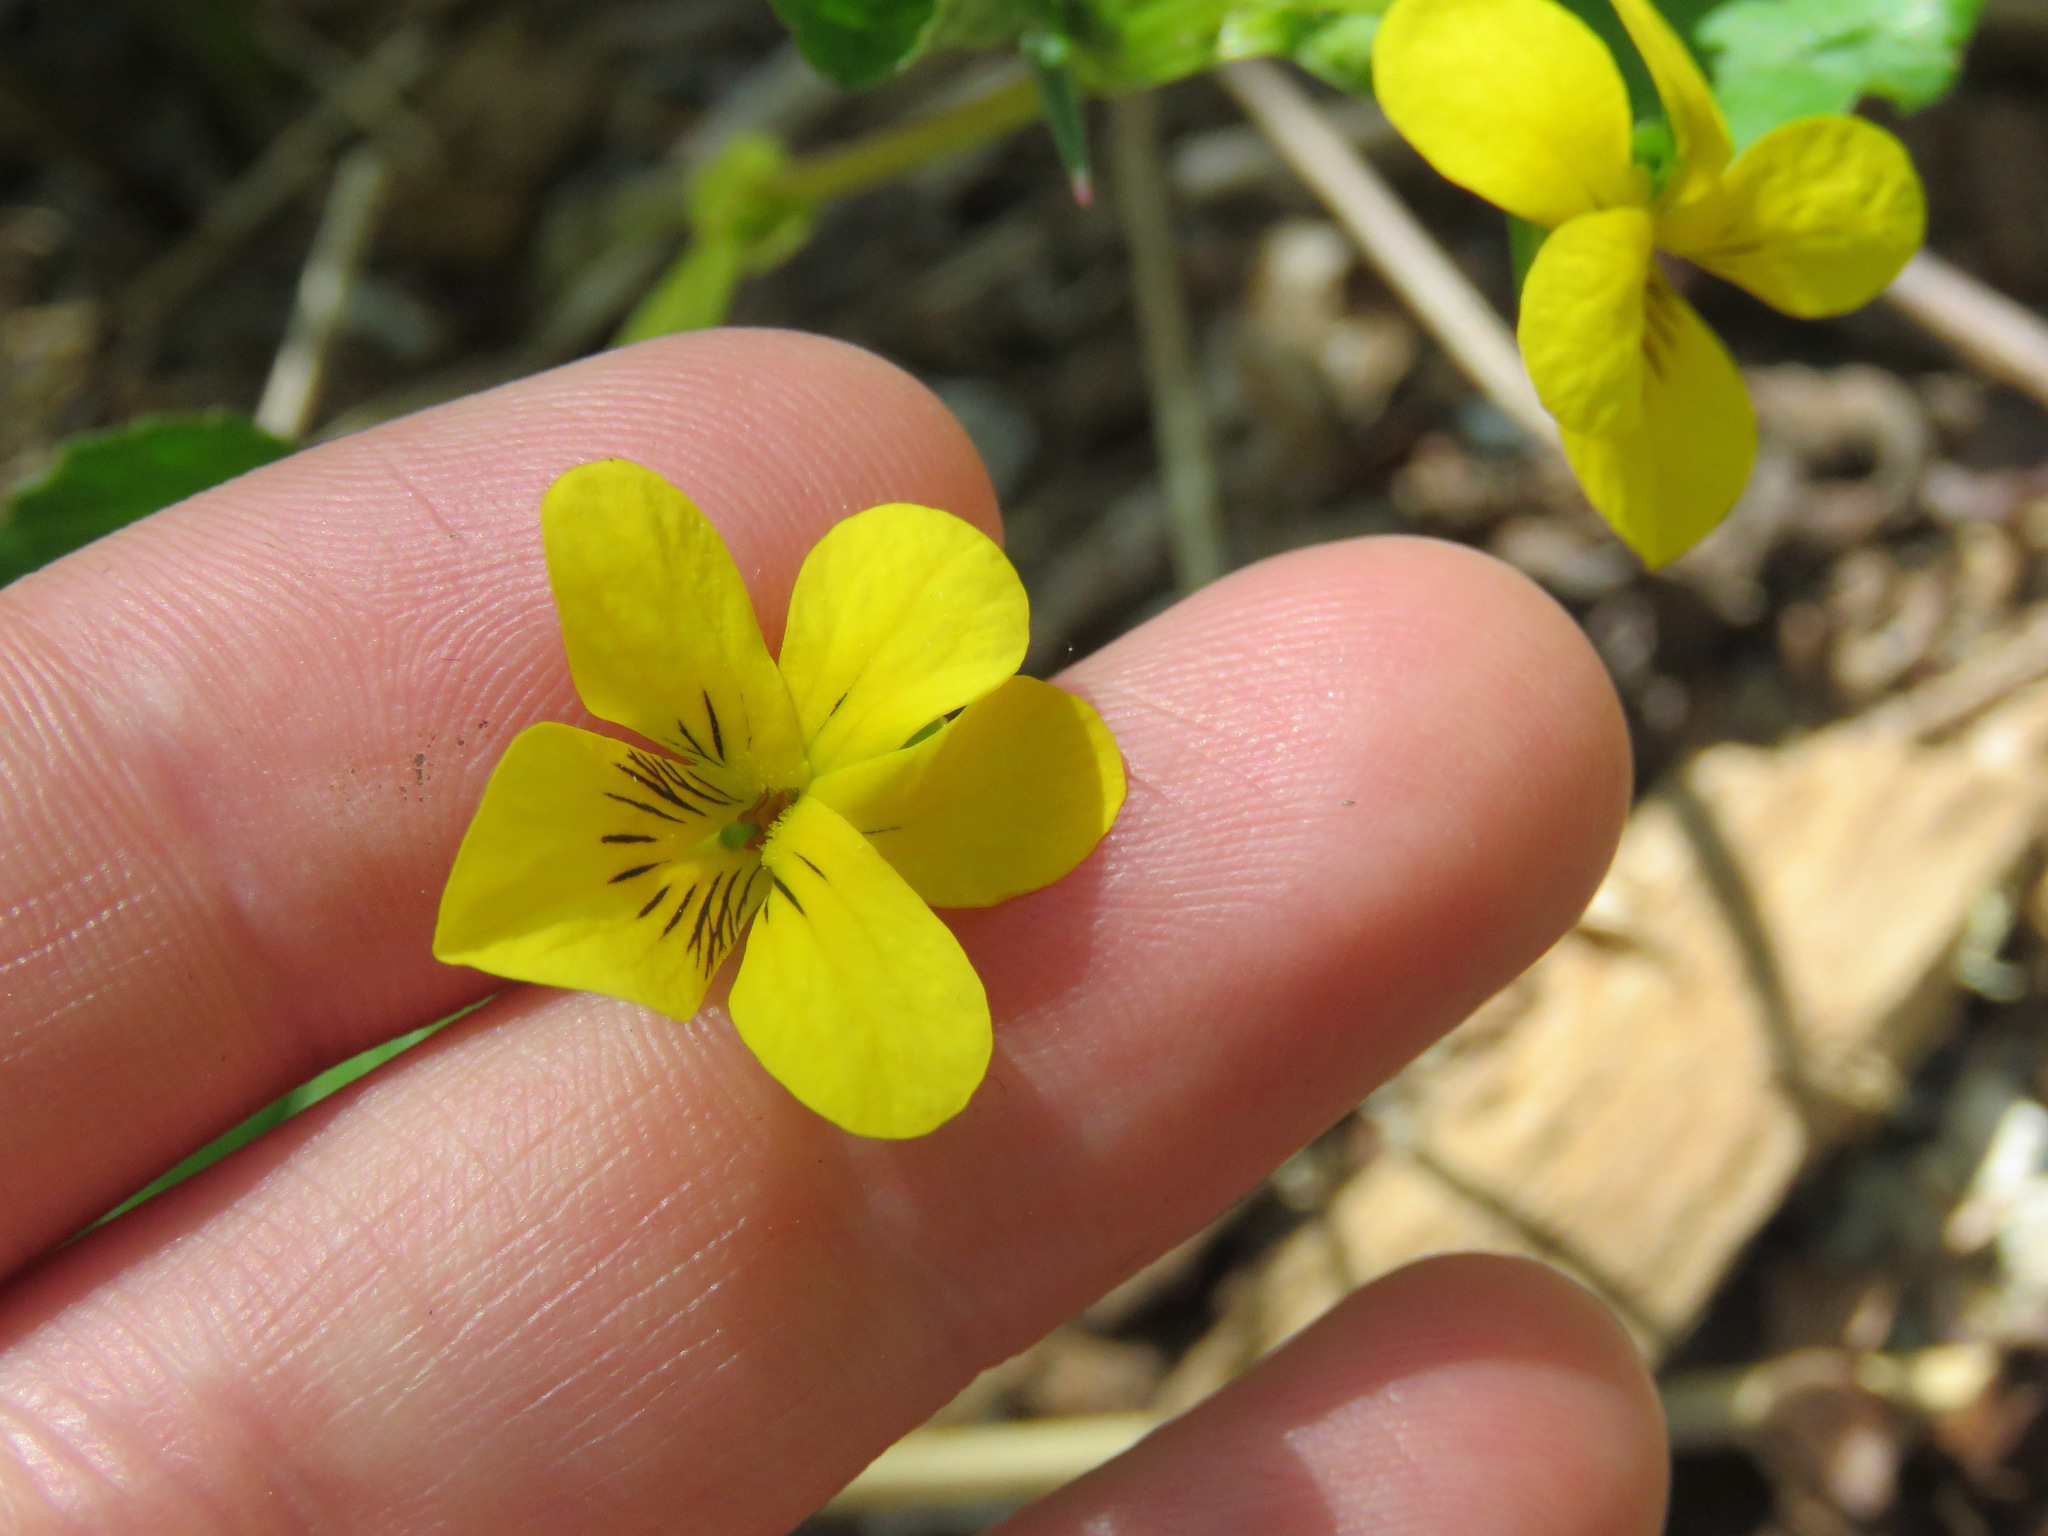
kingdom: Plantae
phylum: Tracheophyta
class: Magnoliopsida
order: Malpighiales
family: Violaceae
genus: Viola
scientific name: Viola glabella
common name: Stream violet
